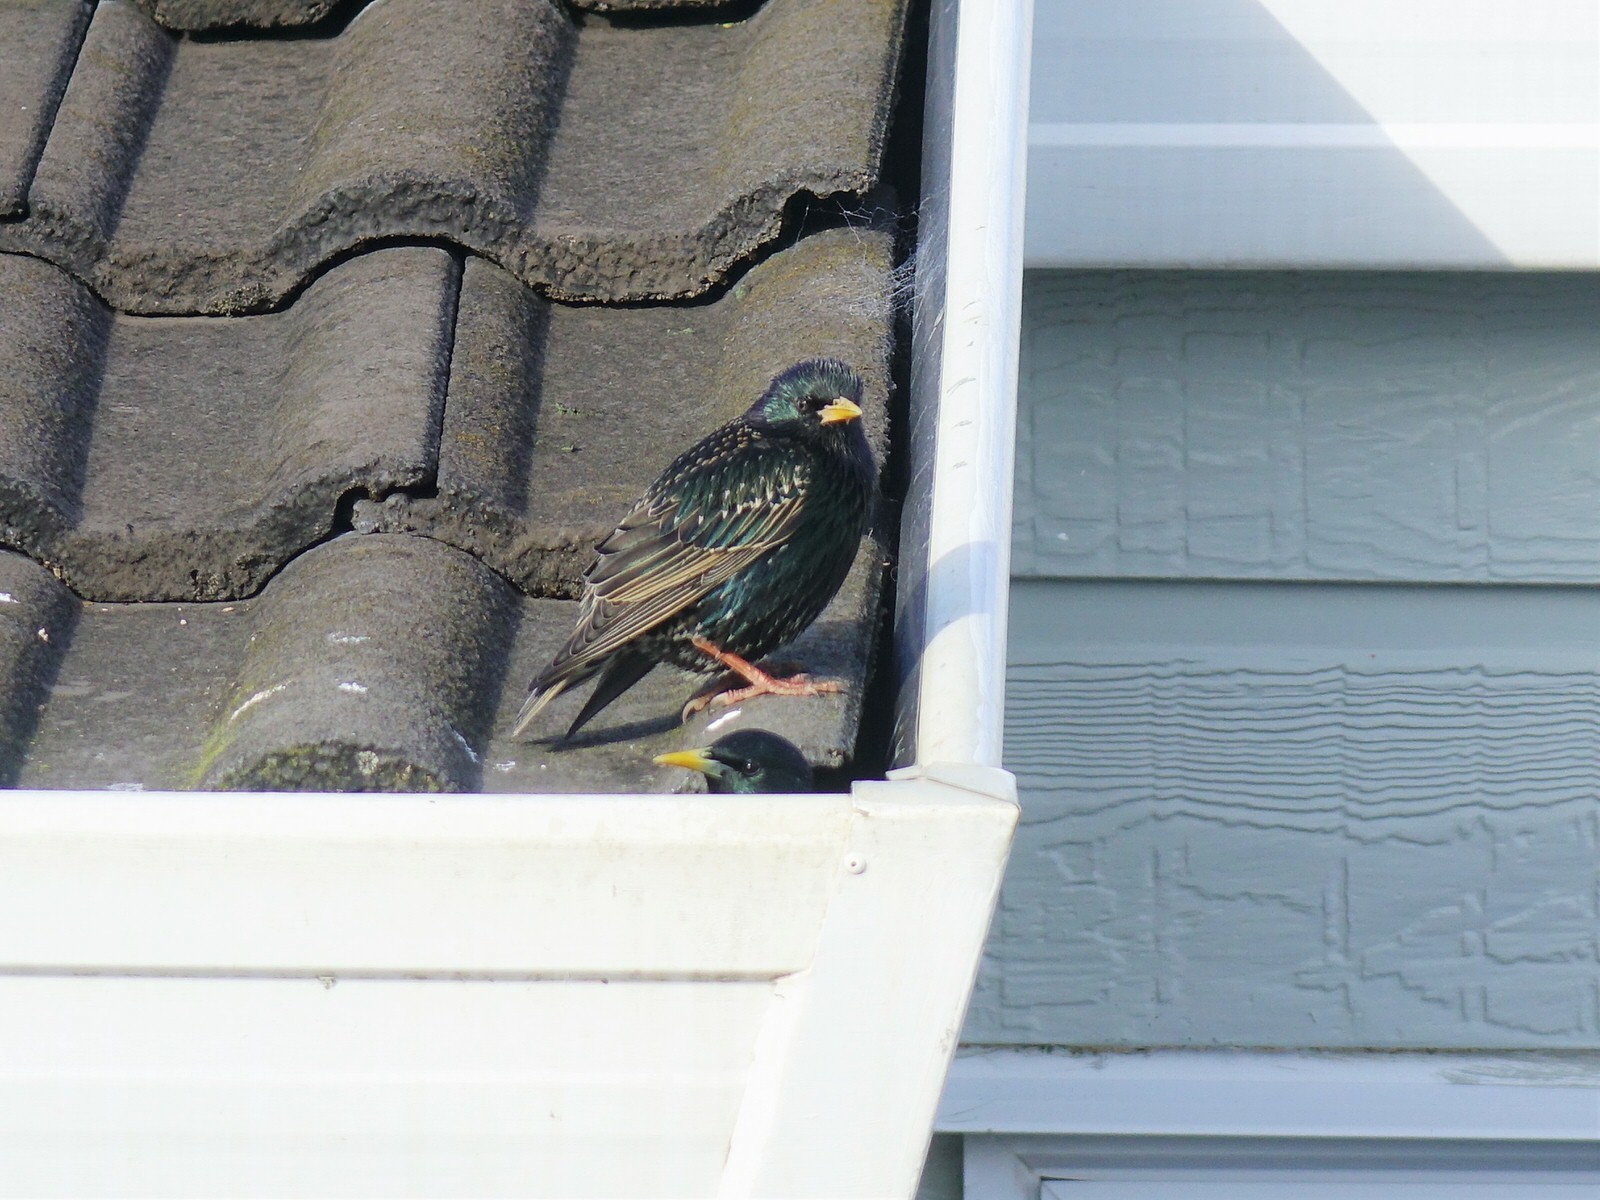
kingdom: Animalia
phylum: Chordata
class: Aves
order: Passeriformes
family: Sturnidae
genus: Sturnus
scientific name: Sturnus vulgaris
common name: Common starling
